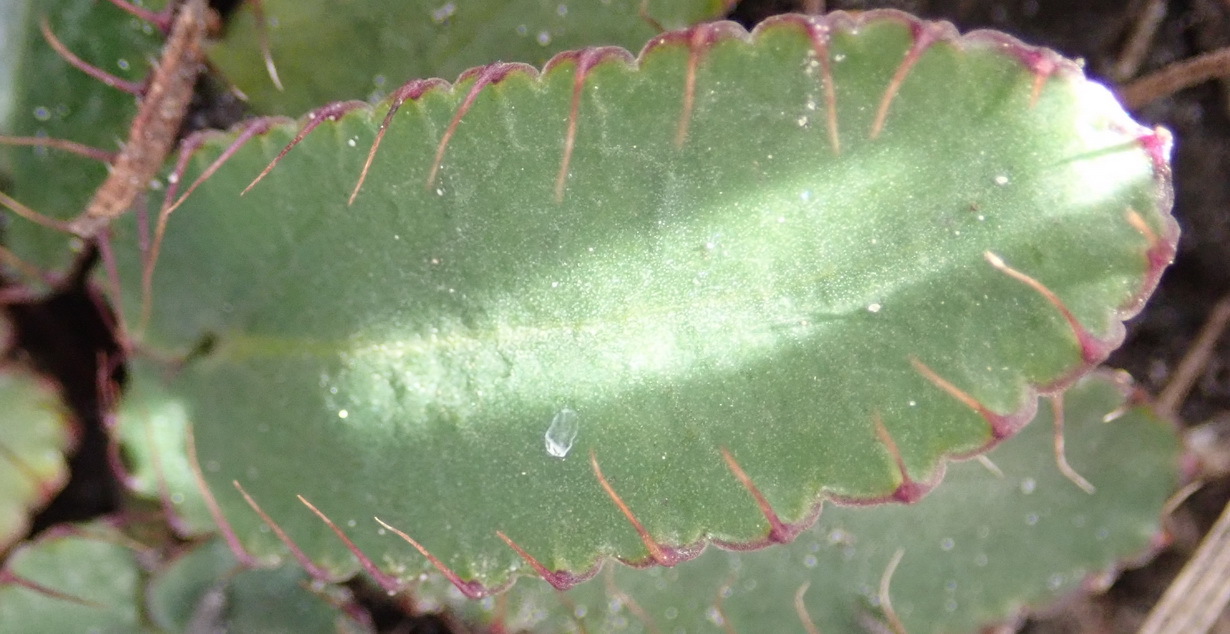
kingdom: Plantae
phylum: Tracheophyta
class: Magnoliopsida
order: Apiales
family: Apiaceae
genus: Alepidea
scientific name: Alepidea capensis
